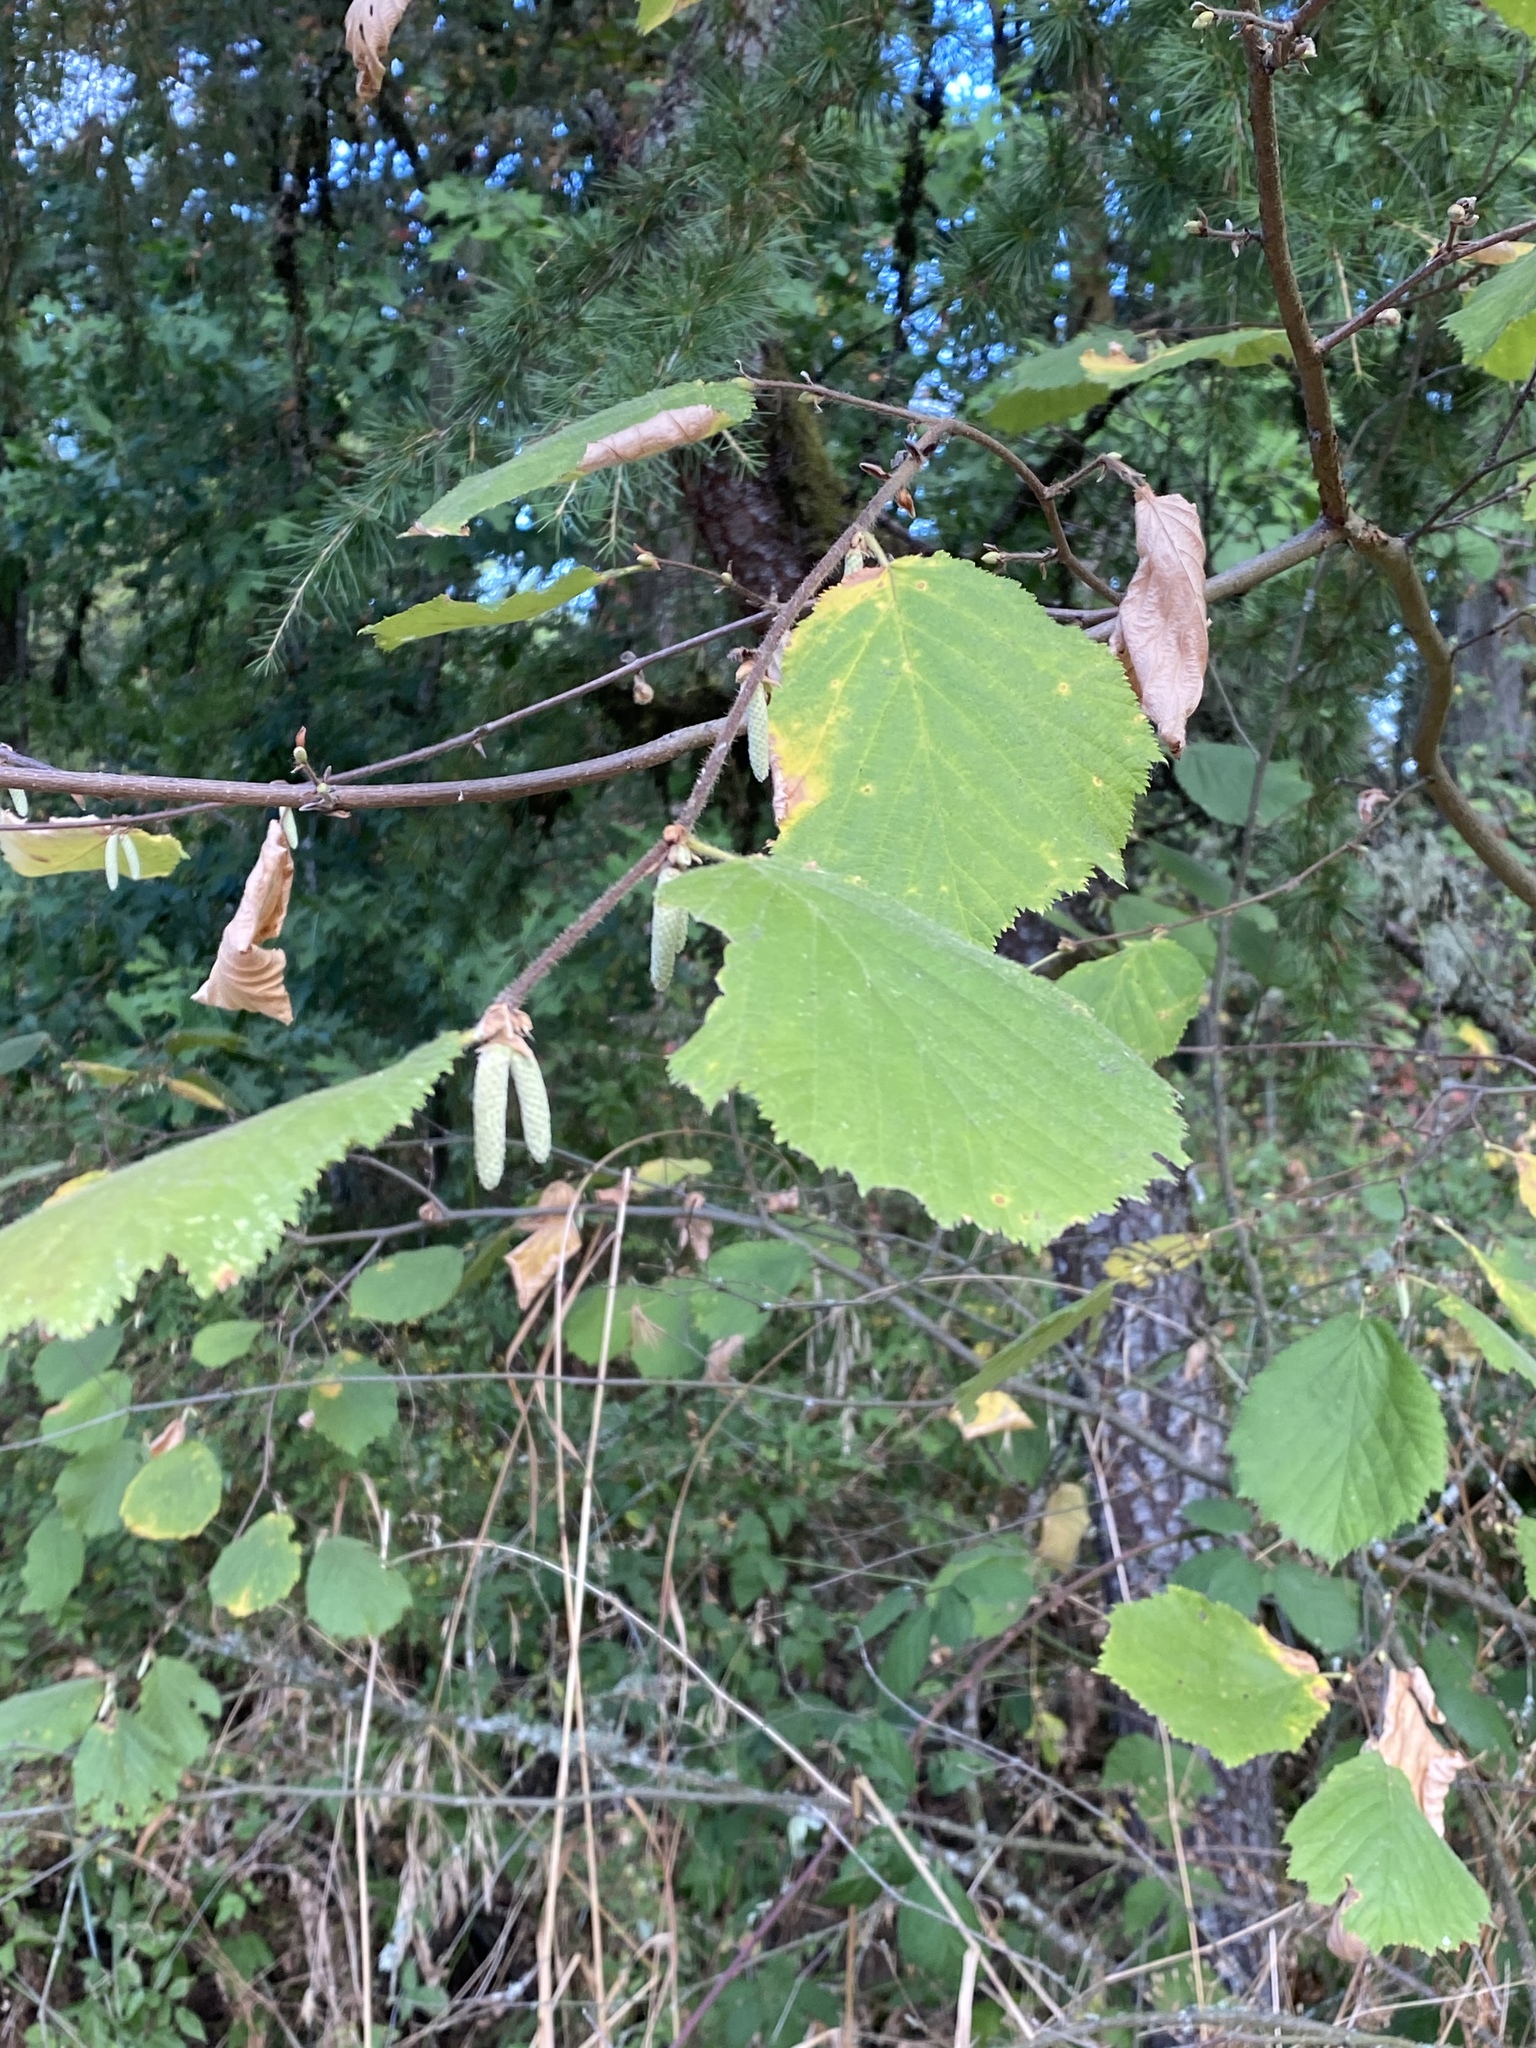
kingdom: Plantae
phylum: Tracheophyta
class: Magnoliopsida
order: Fagales
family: Betulaceae
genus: Corylus
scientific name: Corylus cornuta
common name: Beaked hazel
